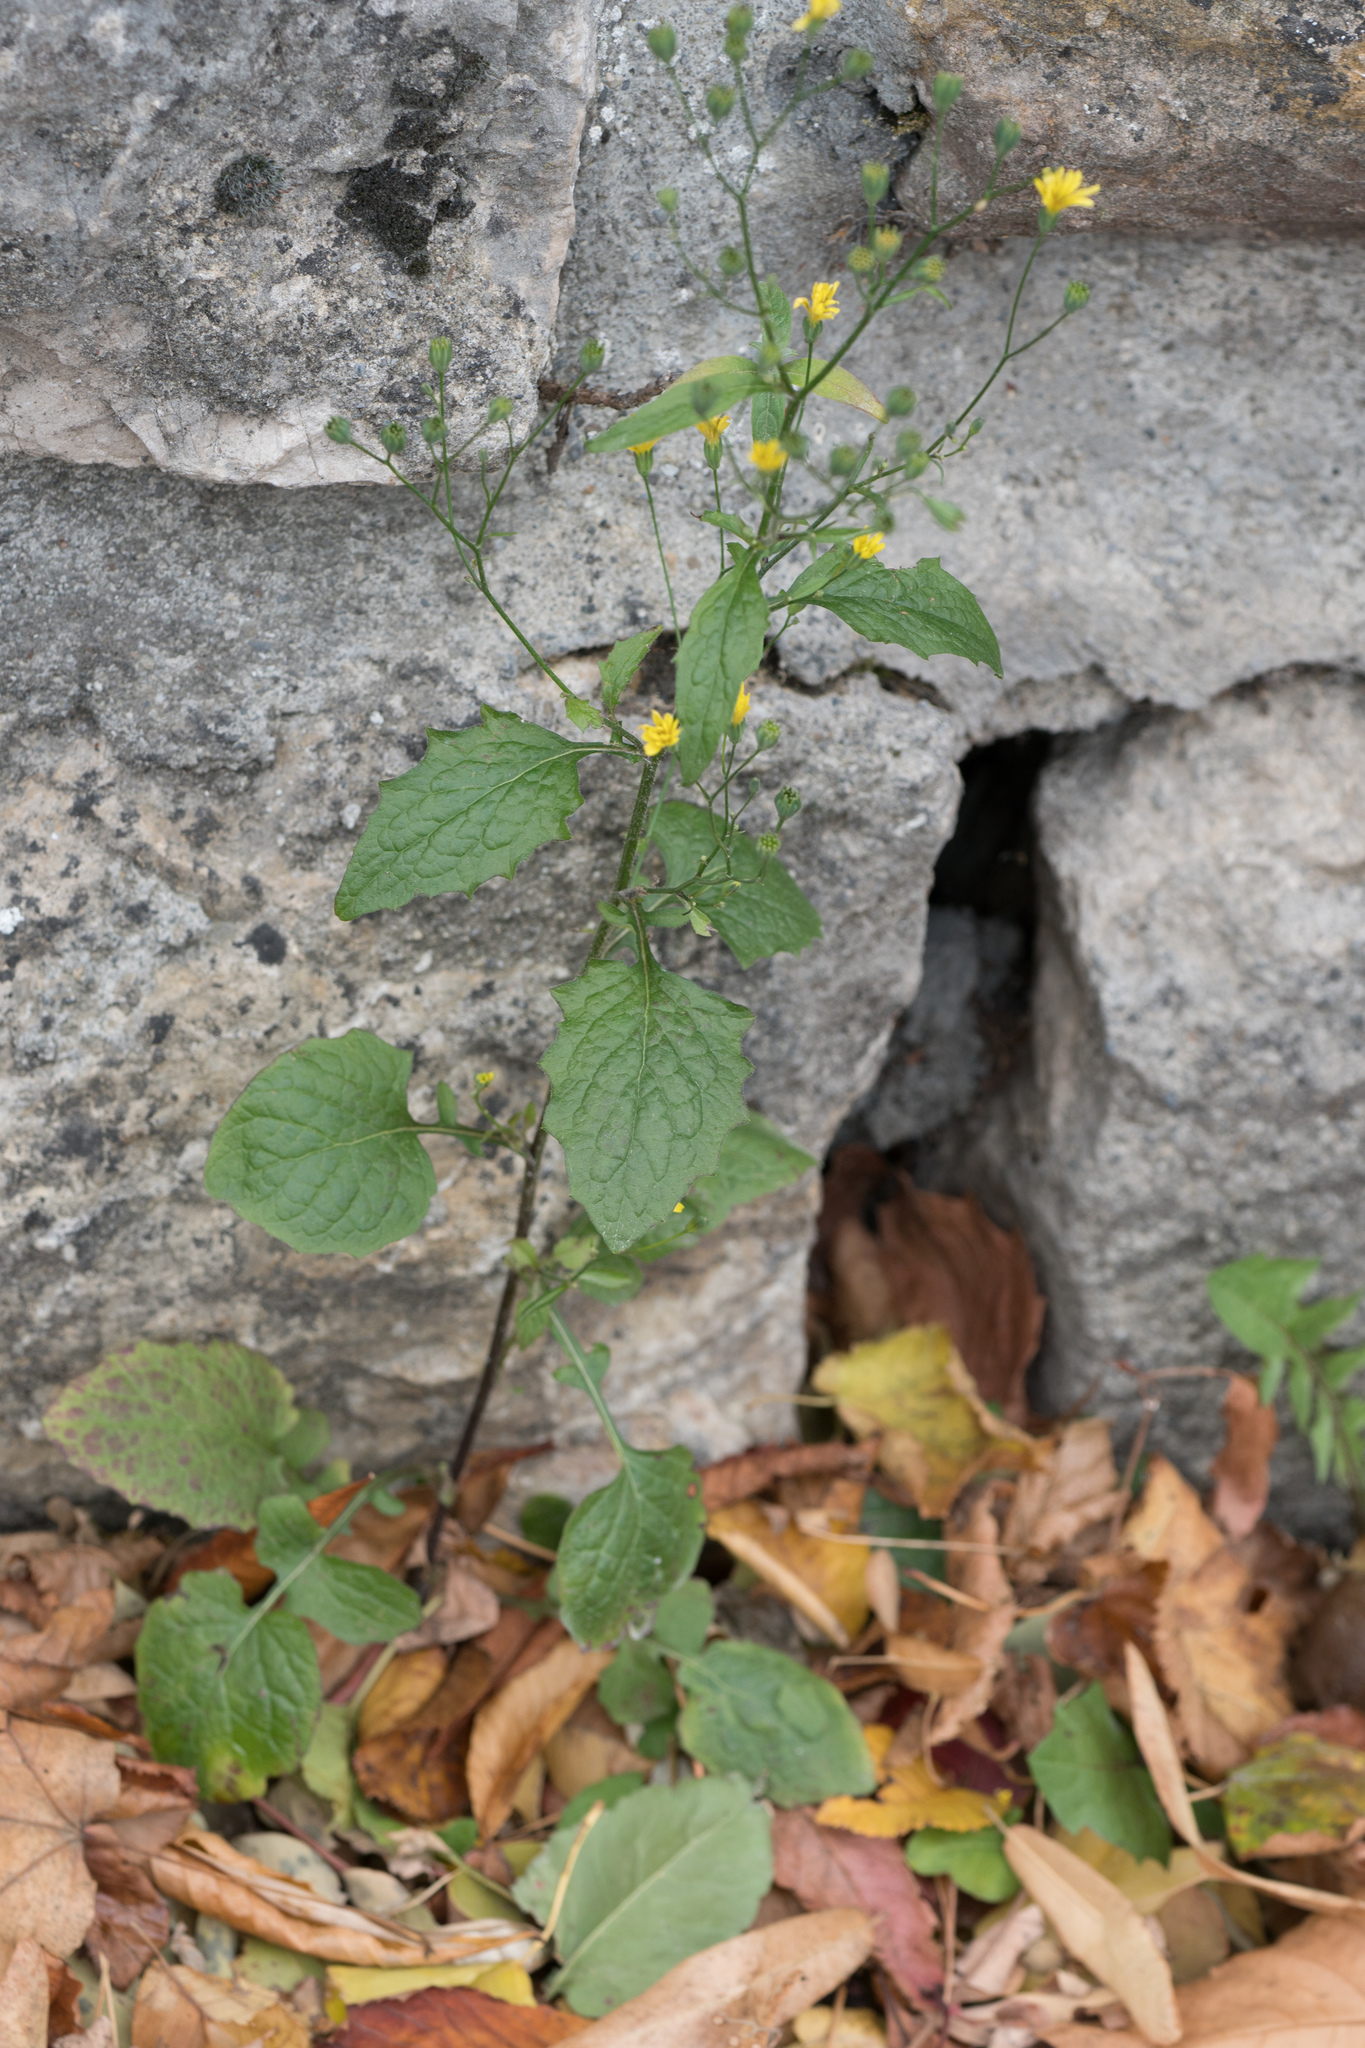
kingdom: Plantae
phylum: Tracheophyta
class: Magnoliopsida
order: Asterales
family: Asteraceae
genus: Lapsana
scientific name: Lapsana communis
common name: Nipplewort
